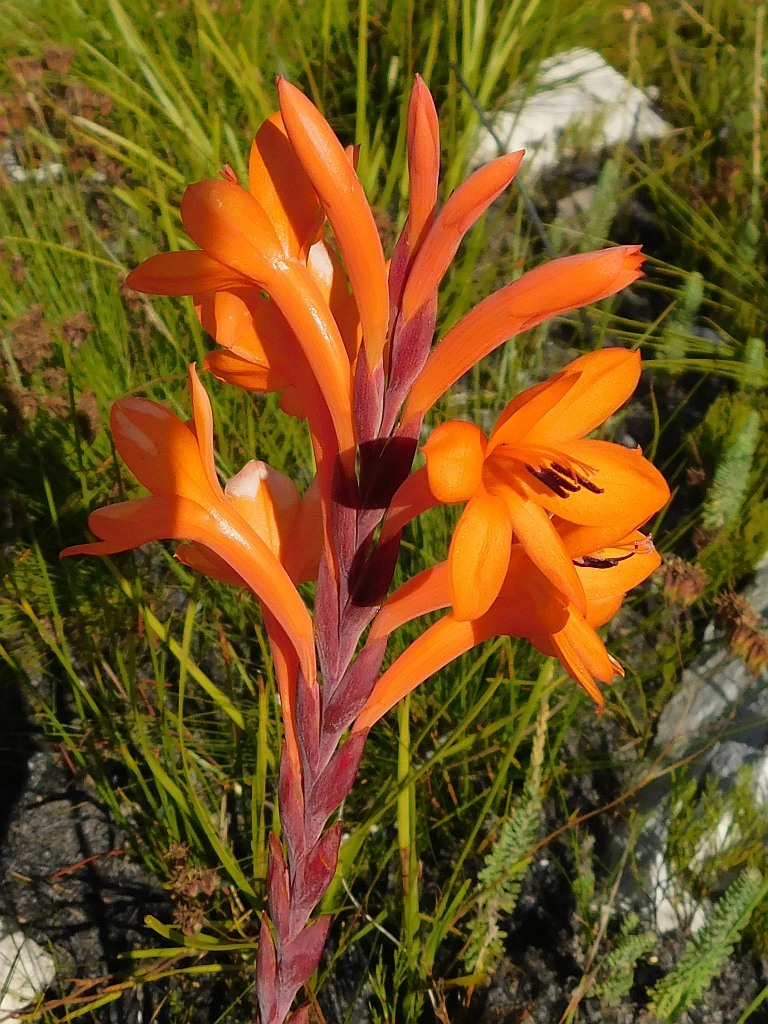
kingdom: Plantae
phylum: Tracheophyta
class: Liliopsida
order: Asparagales
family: Iridaceae
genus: Watsonia
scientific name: Watsonia minima
